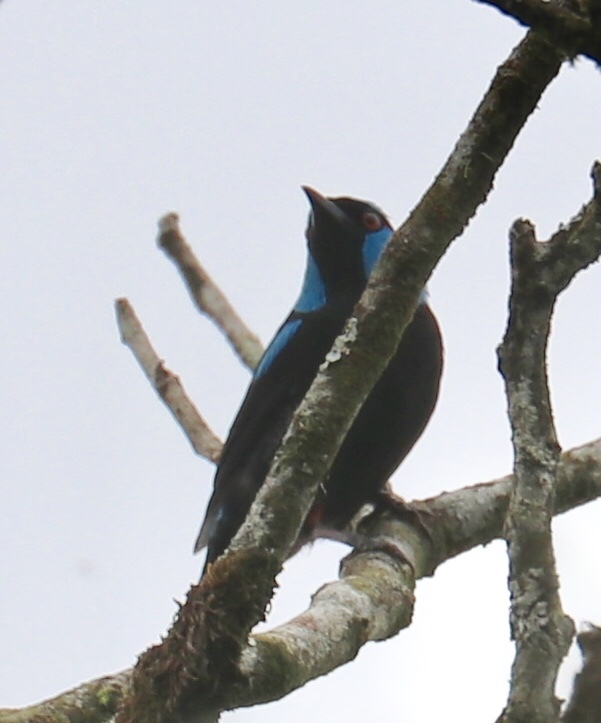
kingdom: Animalia
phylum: Chordata
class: Aves
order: Passeriformes
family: Thraupidae
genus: Dacnis
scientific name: Dacnis venusta
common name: Scarlet-thighed dacnis
